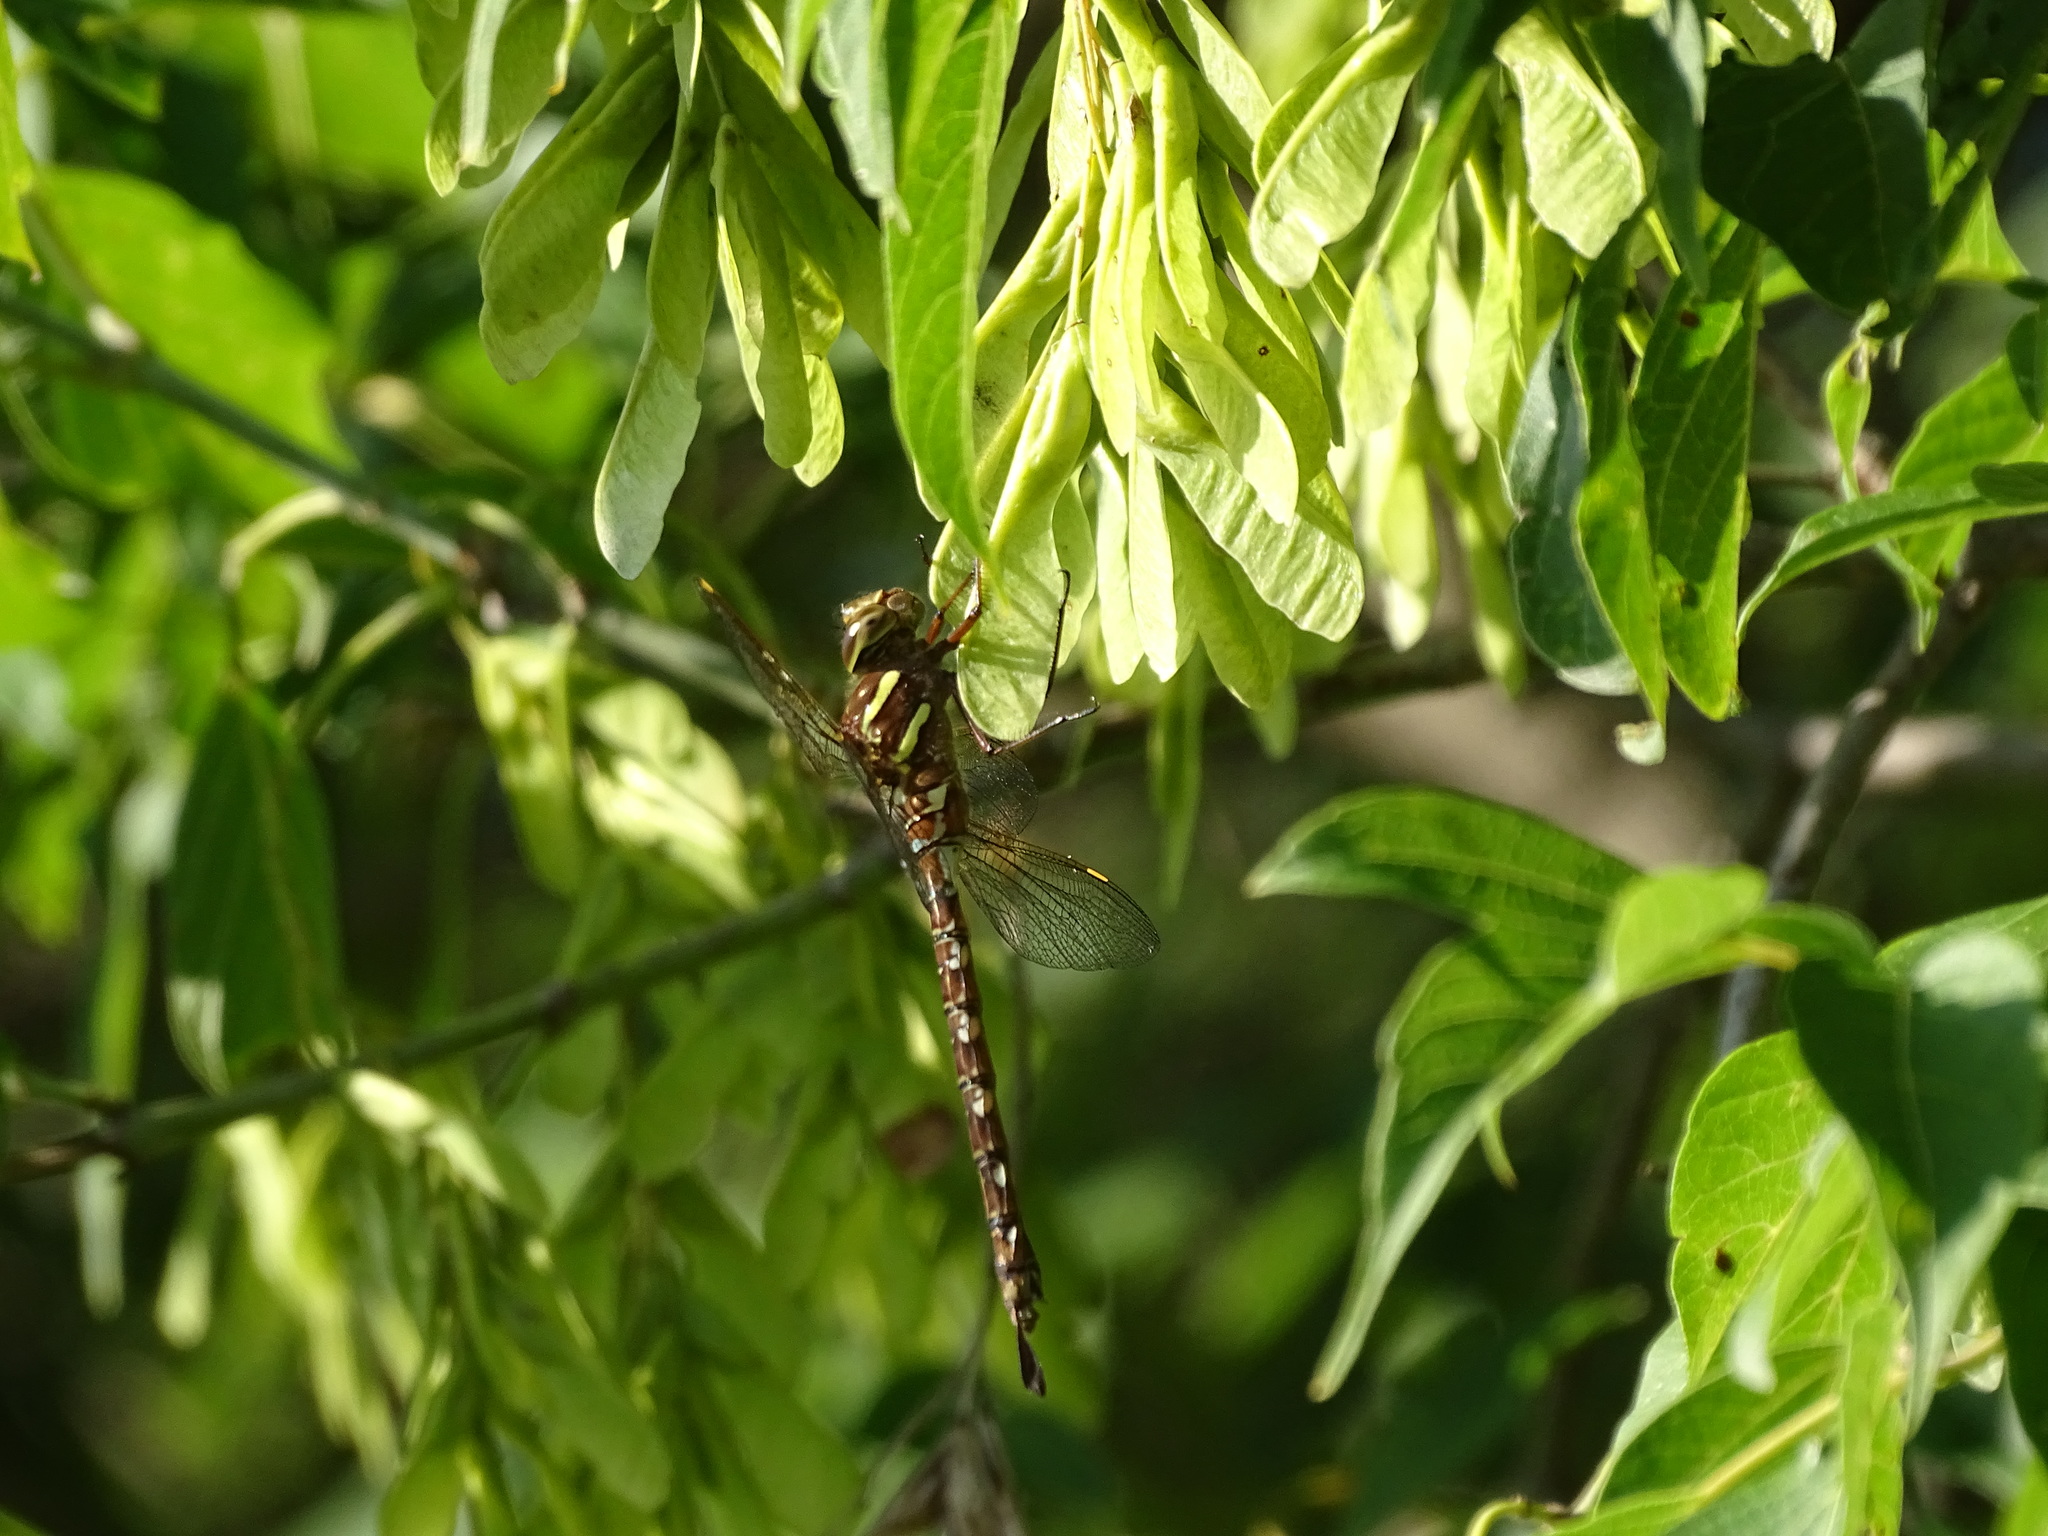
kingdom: Animalia
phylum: Arthropoda
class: Insecta
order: Odonata
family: Aeshnidae
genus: Aeshna
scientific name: Aeshna umbrosa
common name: Shadow darner
